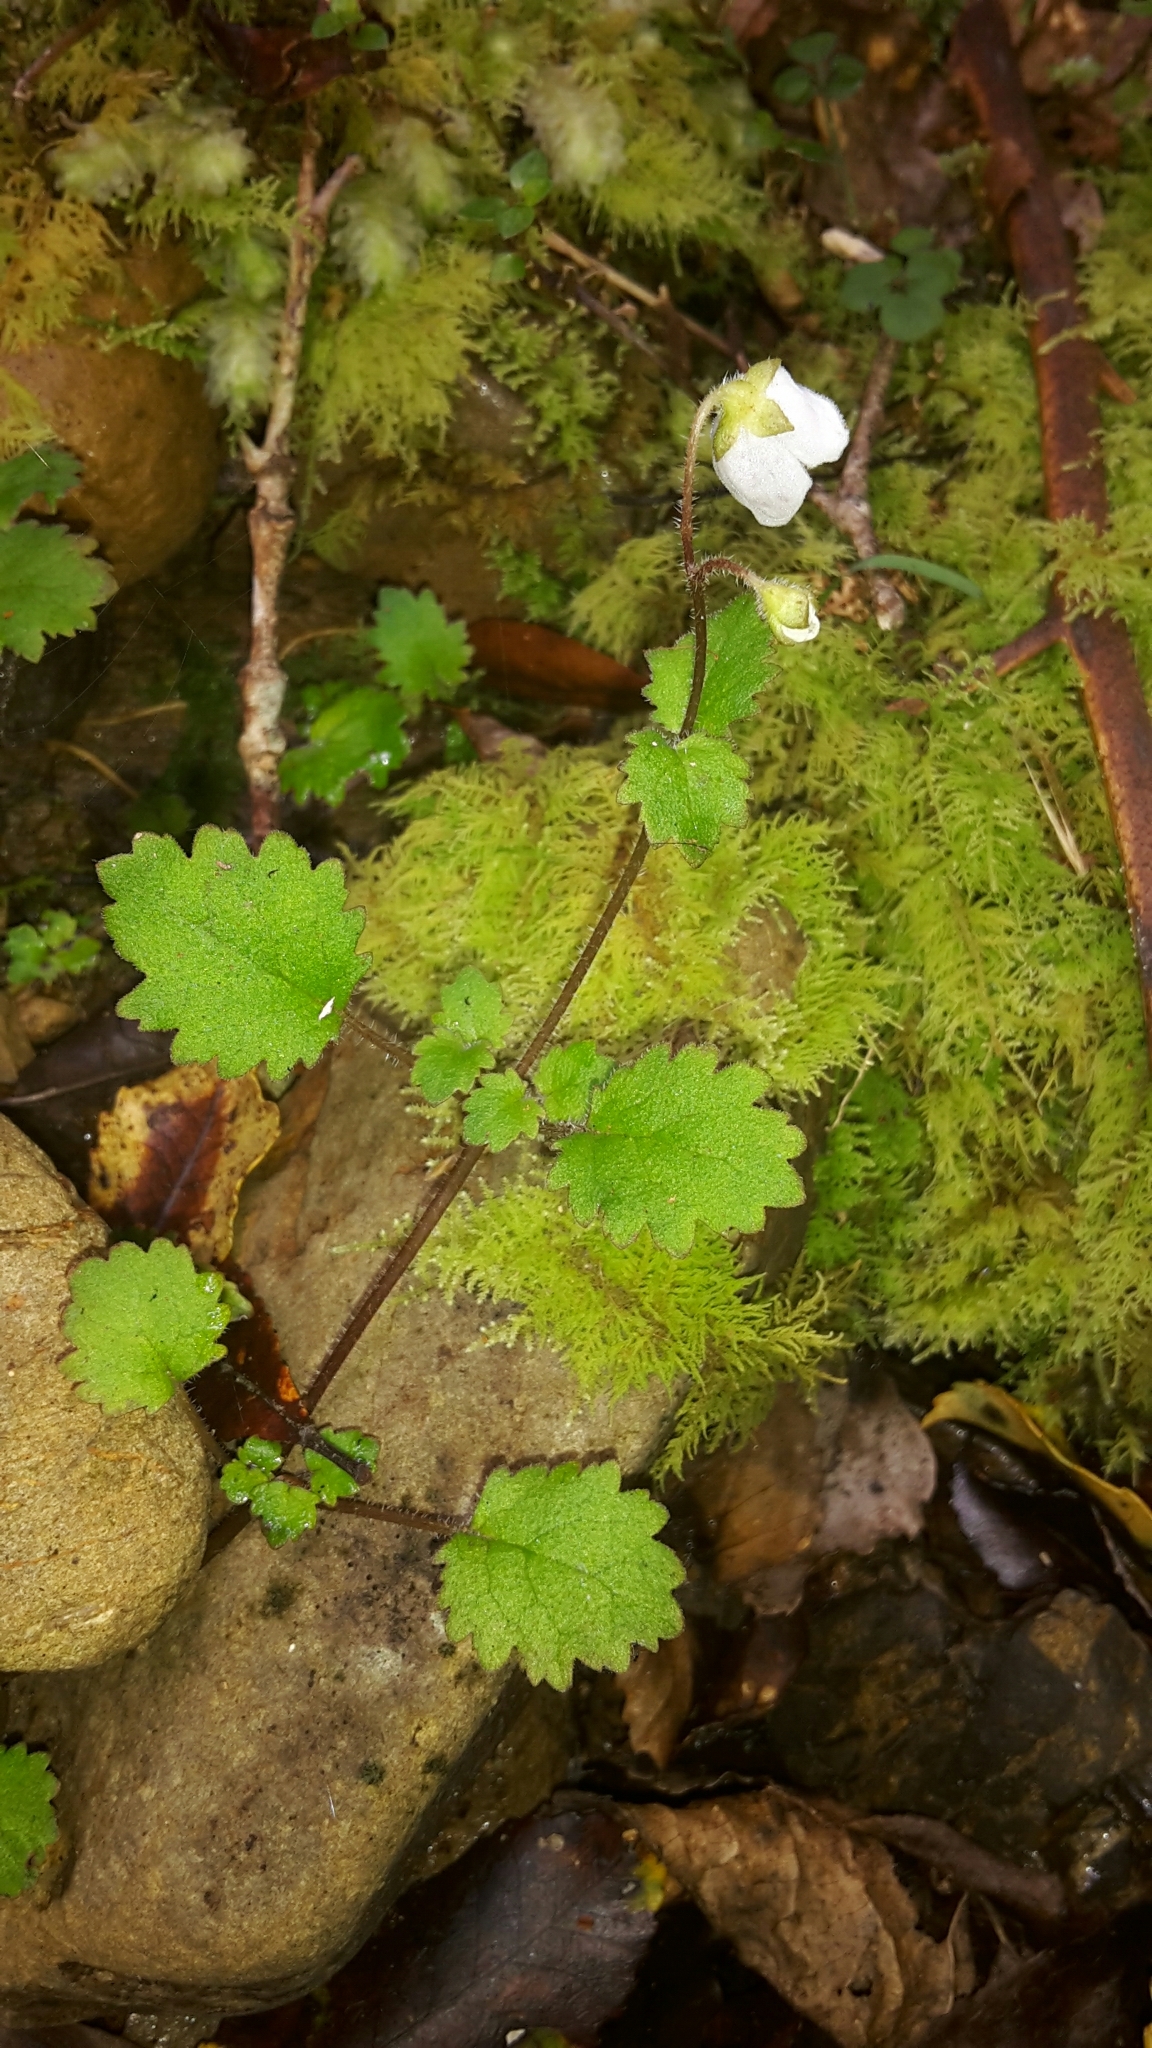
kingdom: Plantae
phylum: Tracheophyta
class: Magnoliopsida
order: Lamiales
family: Calceolariaceae
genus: Jovellana
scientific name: Jovellana repens
